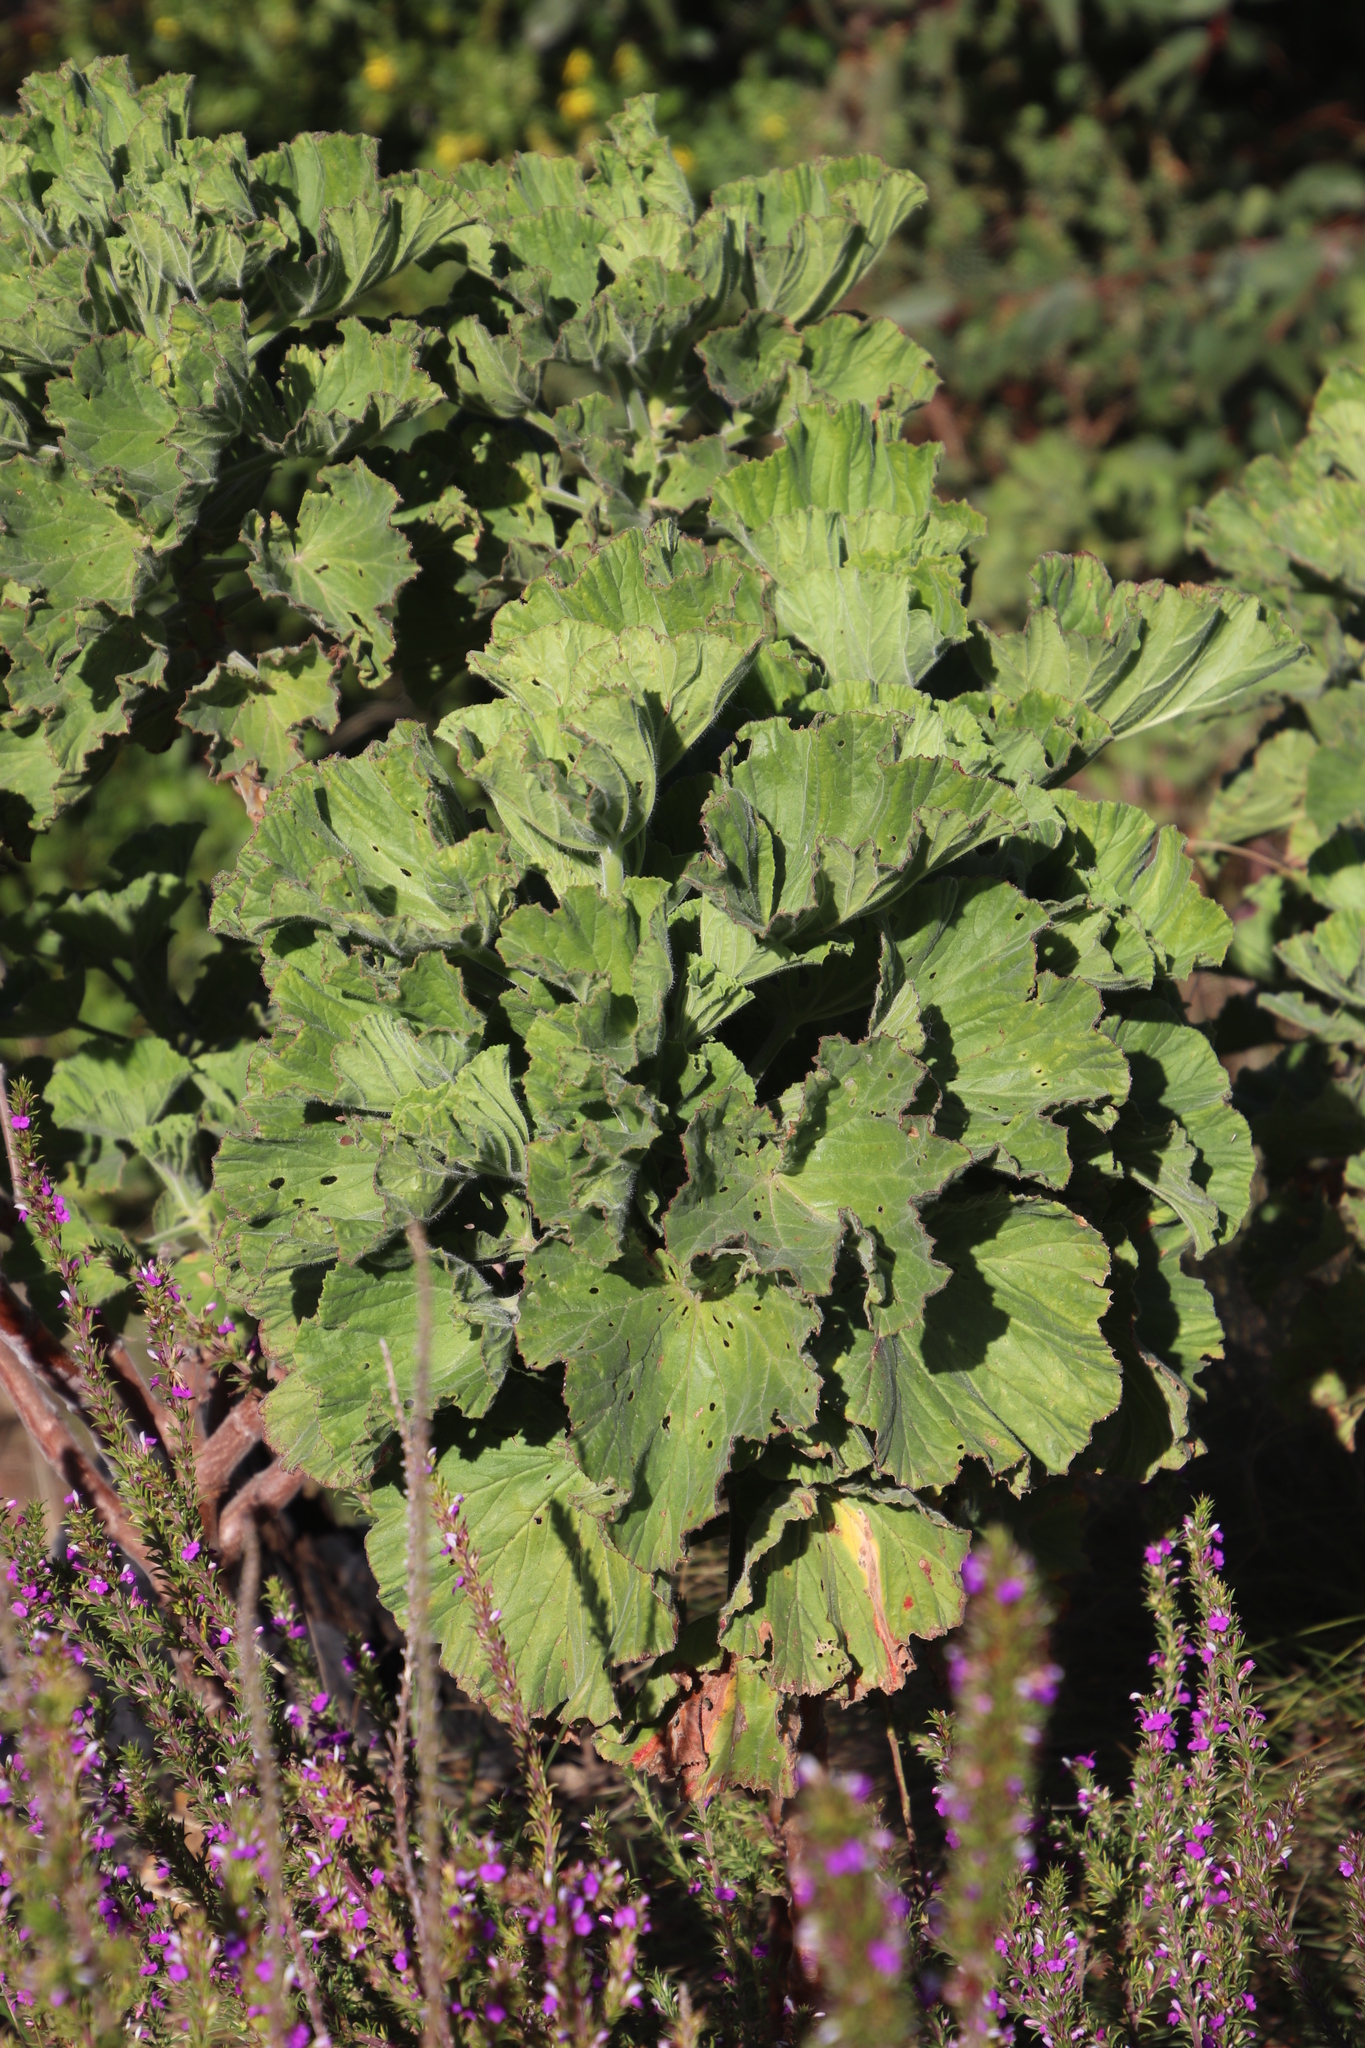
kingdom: Plantae
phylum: Tracheophyta
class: Magnoliopsida
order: Geraniales
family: Geraniaceae
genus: Pelargonium
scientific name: Pelargonium cucullatum
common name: Tree pelargonium
